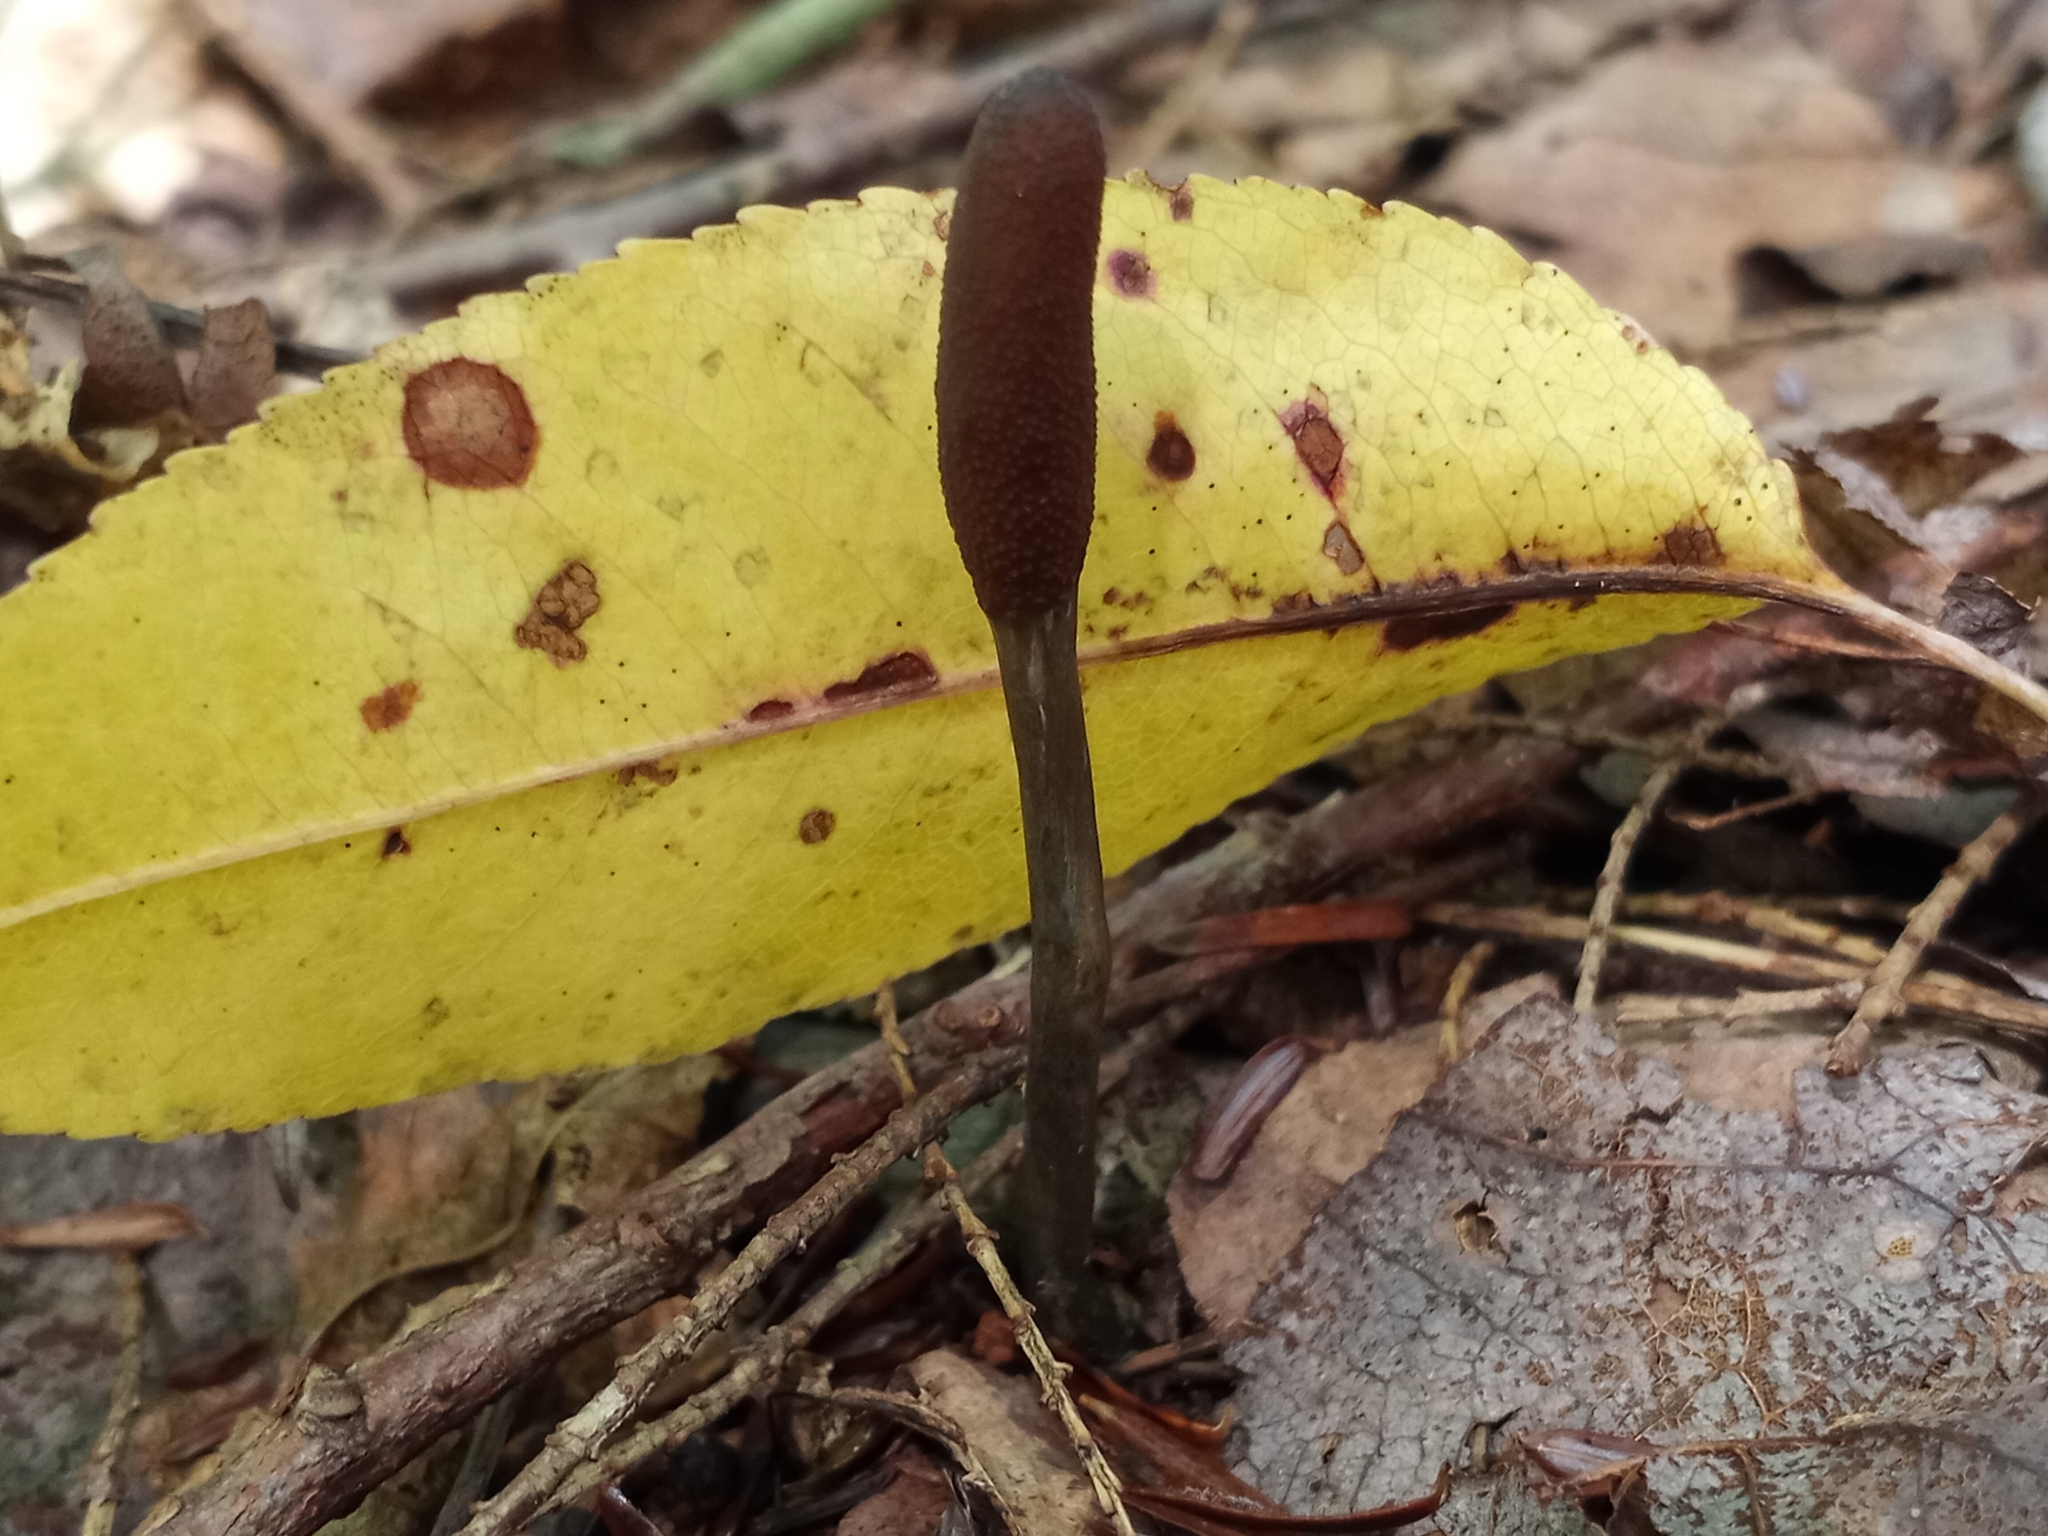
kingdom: Fungi
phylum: Ascomycota
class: Sordariomycetes
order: Hypocreales
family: Ophiocordycipitaceae
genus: Tolypocladium
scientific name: Tolypocladium ophioglossoides
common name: Snaketongue truffleclub
